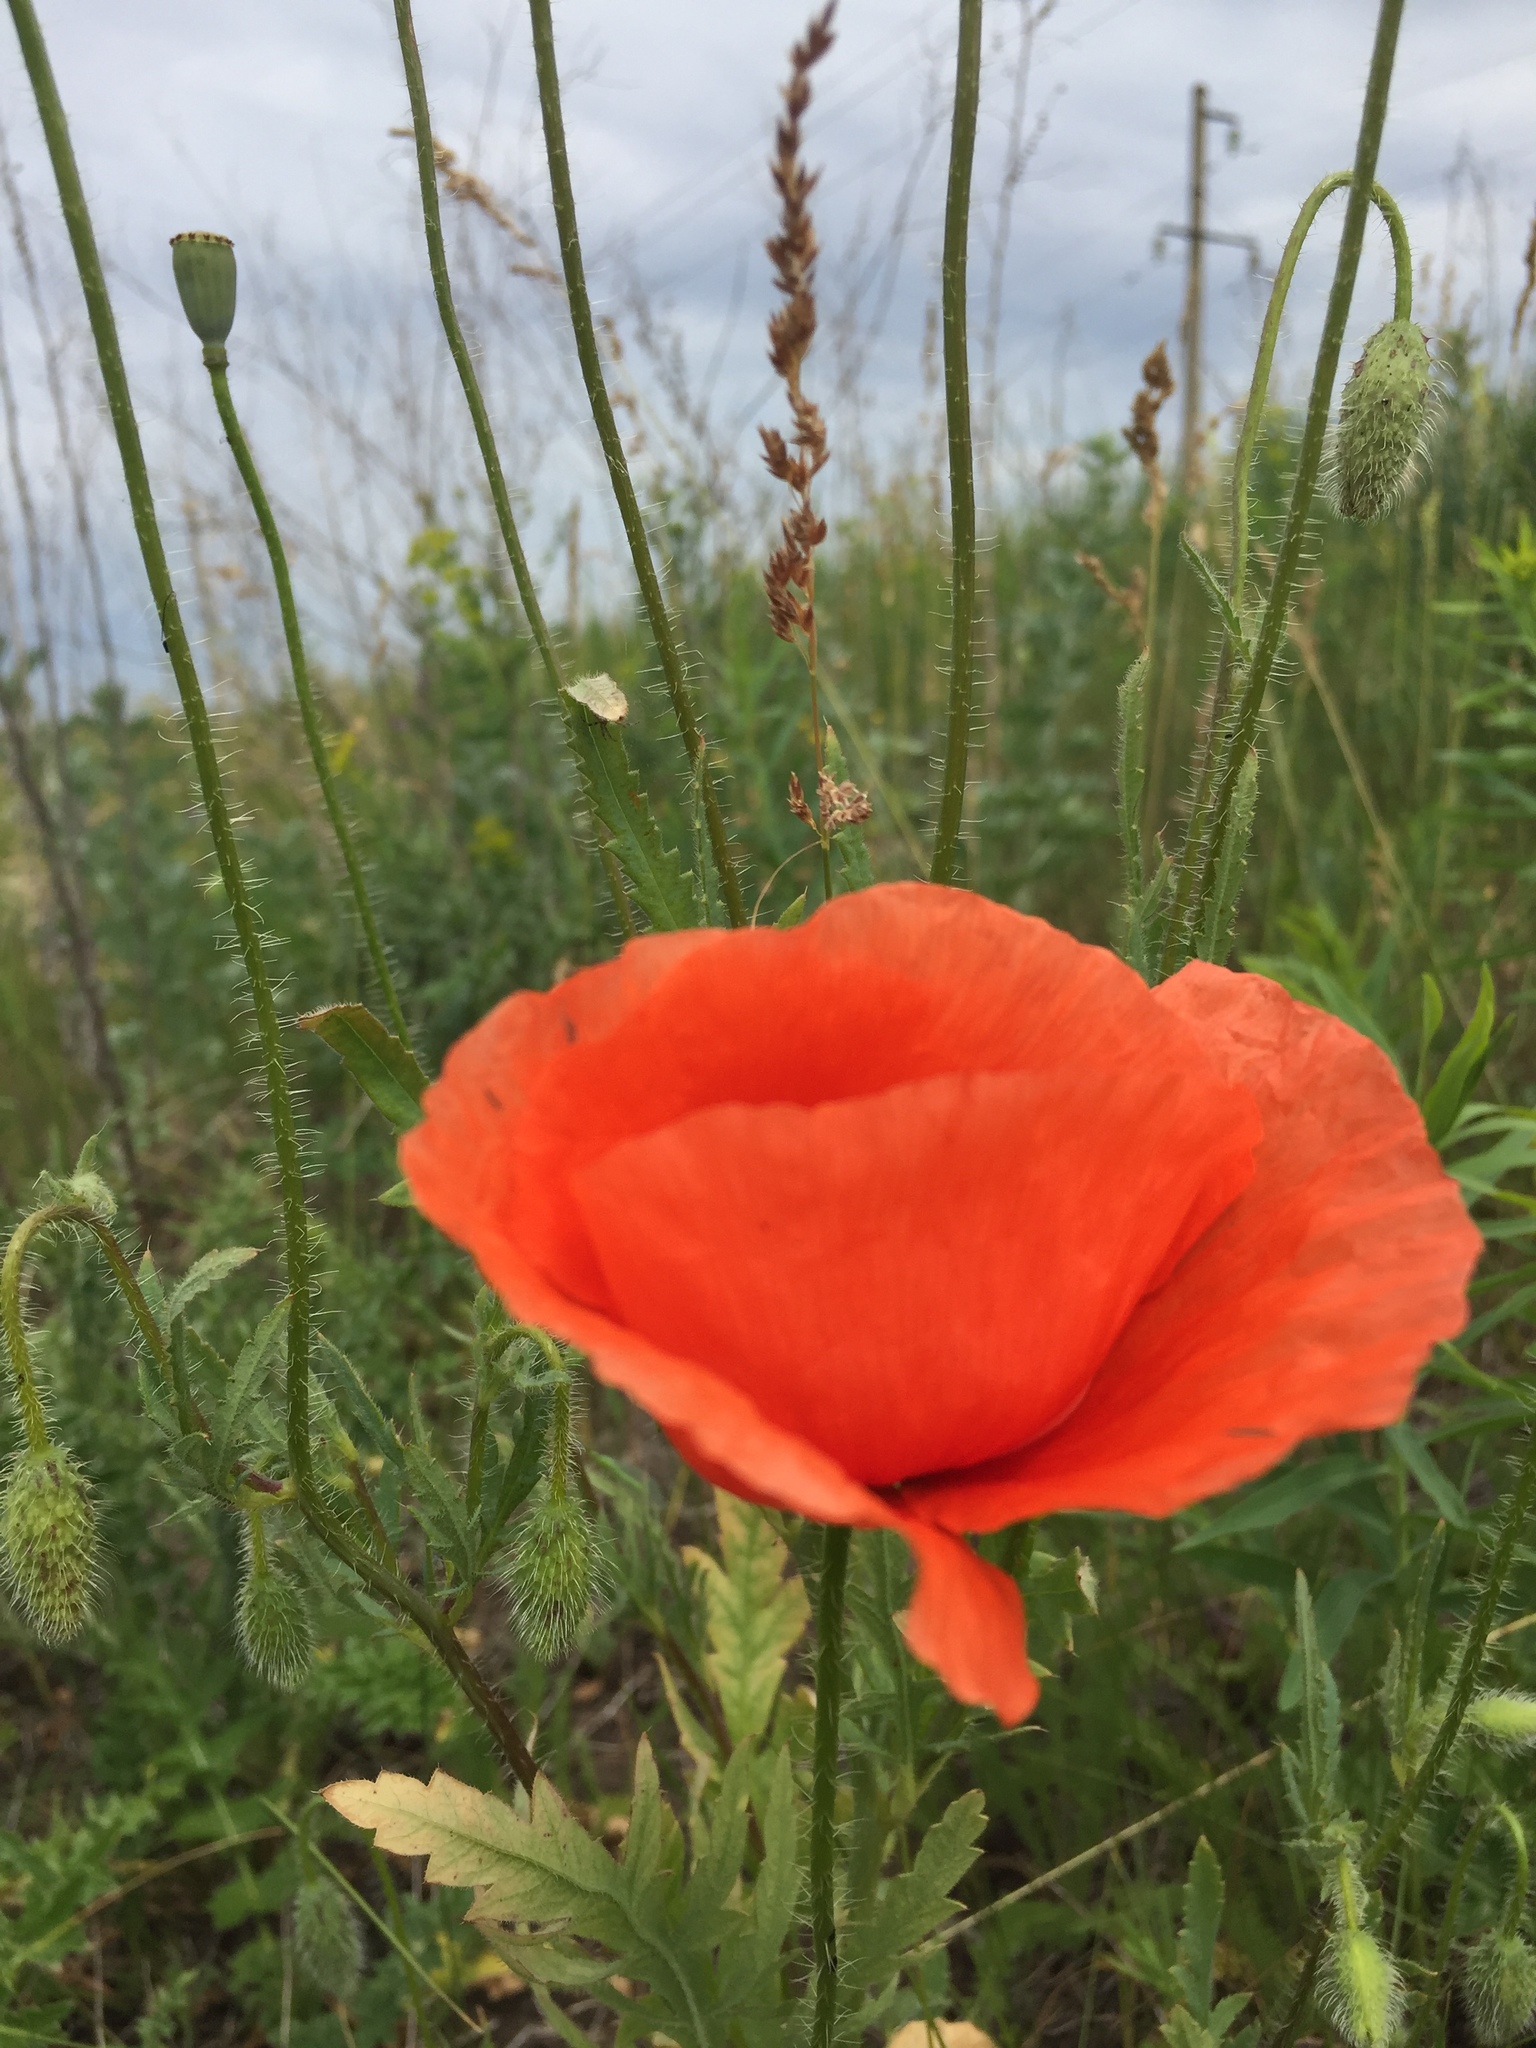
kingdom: Plantae
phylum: Tracheophyta
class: Magnoliopsida
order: Ranunculales
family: Papaveraceae
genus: Papaver
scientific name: Papaver rhoeas
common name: Corn poppy
